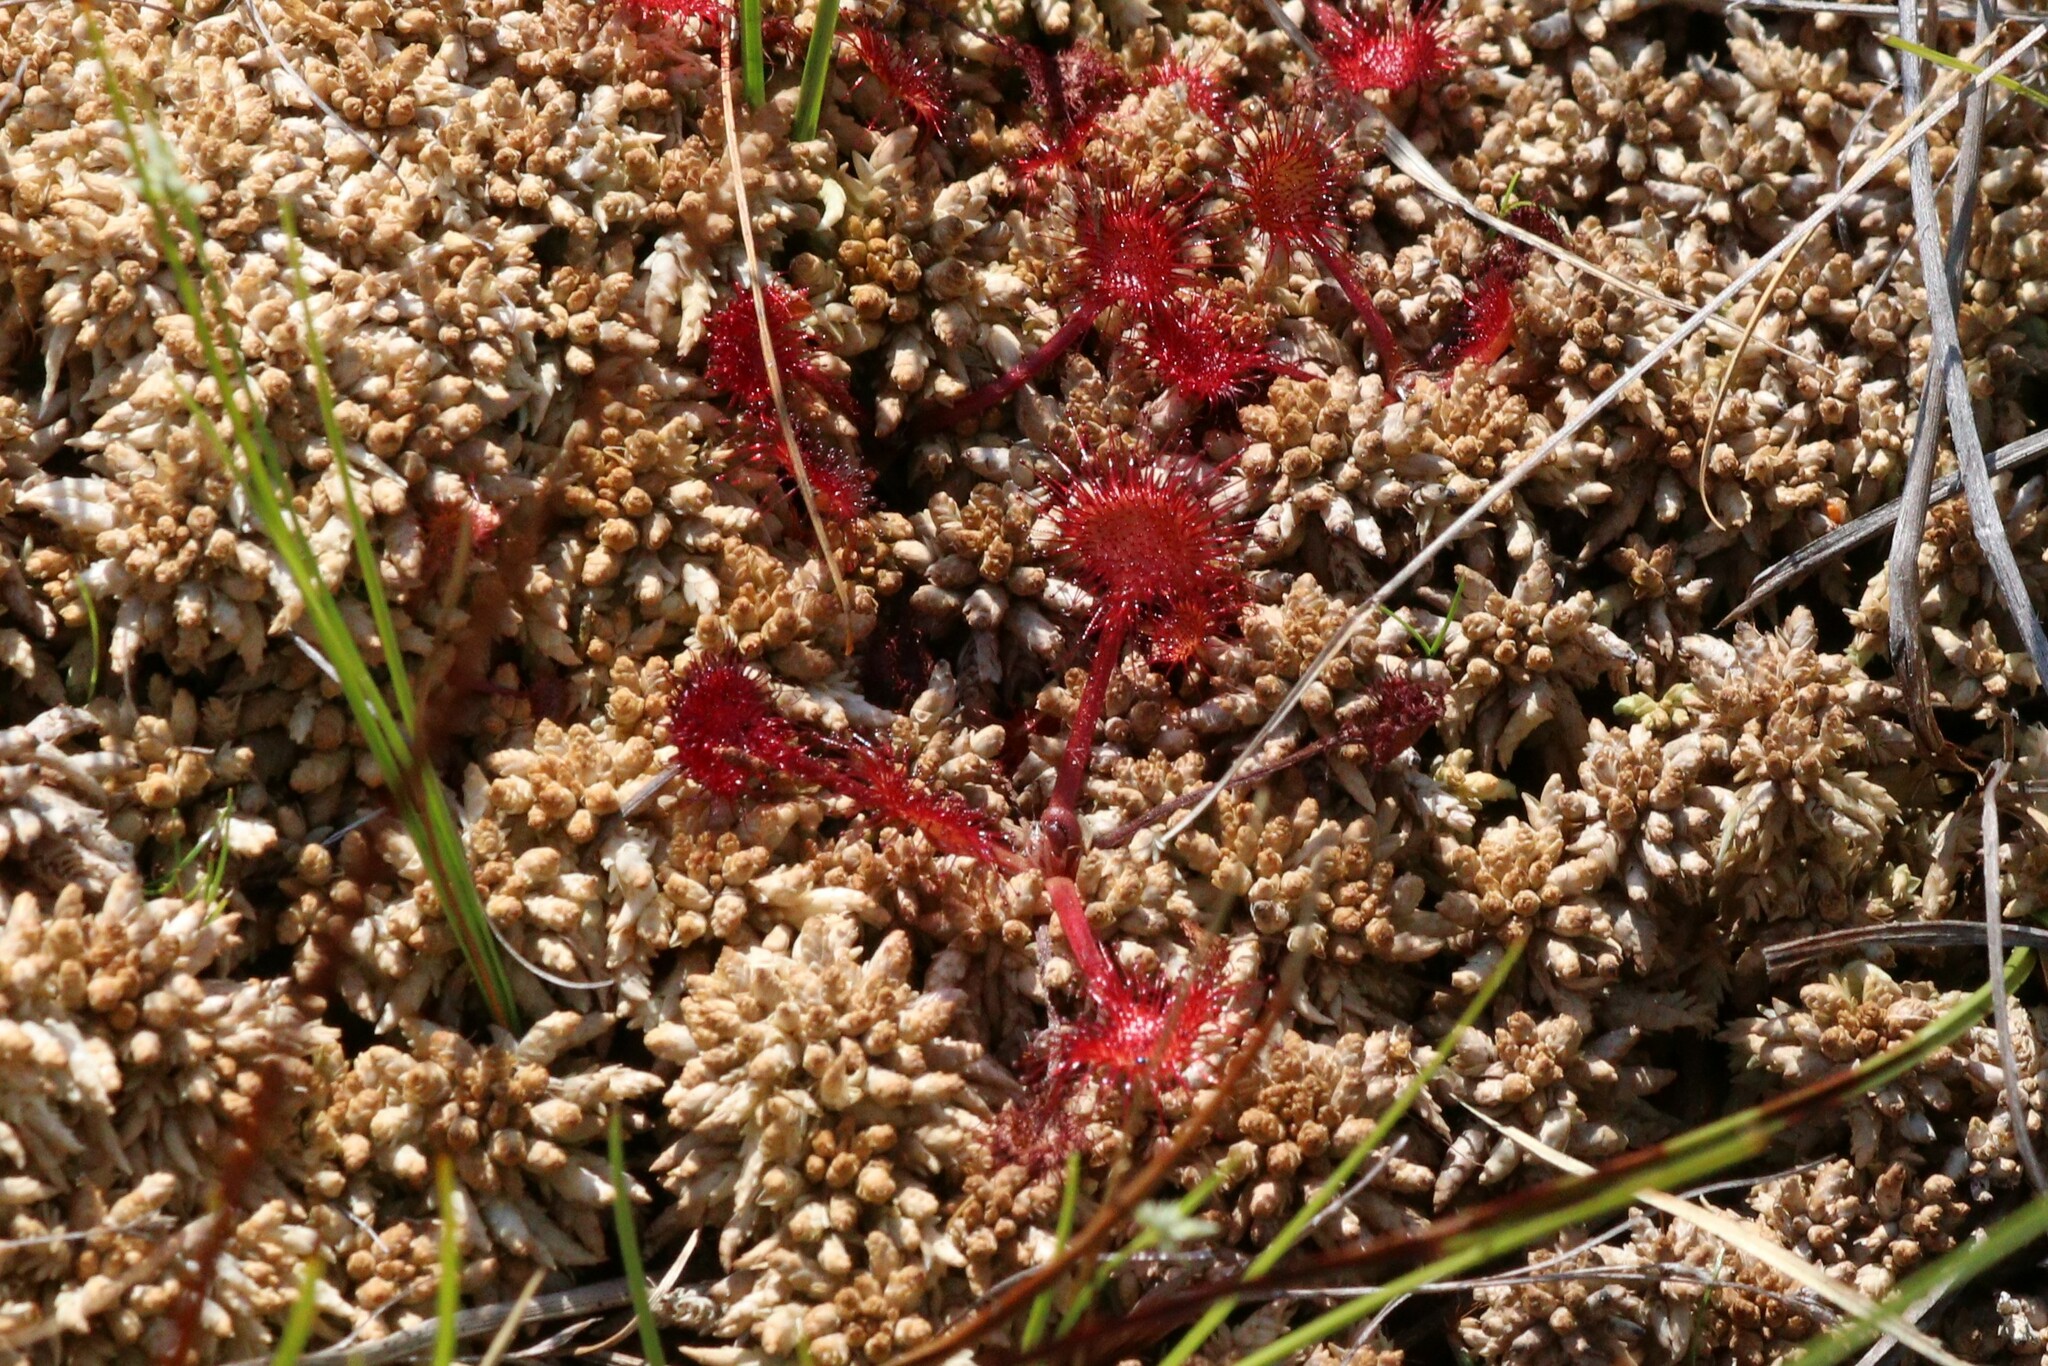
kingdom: Plantae
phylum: Tracheophyta
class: Magnoliopsida
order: Caryophyllales
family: Droseraceae
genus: Drosera
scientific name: Drosera rotundifolia
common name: Round-leaved sundew
